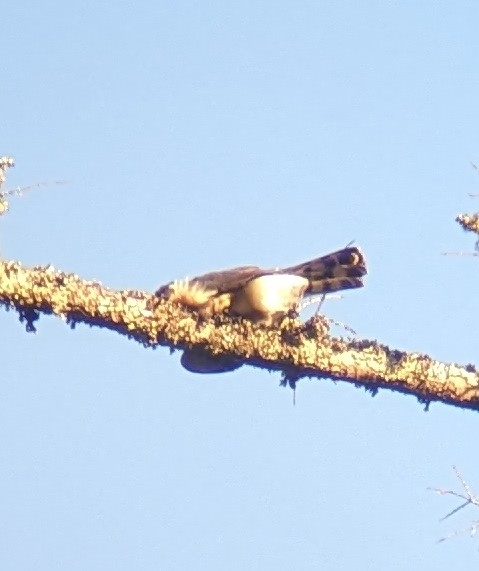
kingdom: Animalia
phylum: Chordata
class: Aves
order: Accipitriformes
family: Accipitridae
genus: Accipiter
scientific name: Accipiter cooperii
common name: Cooper's hawk
